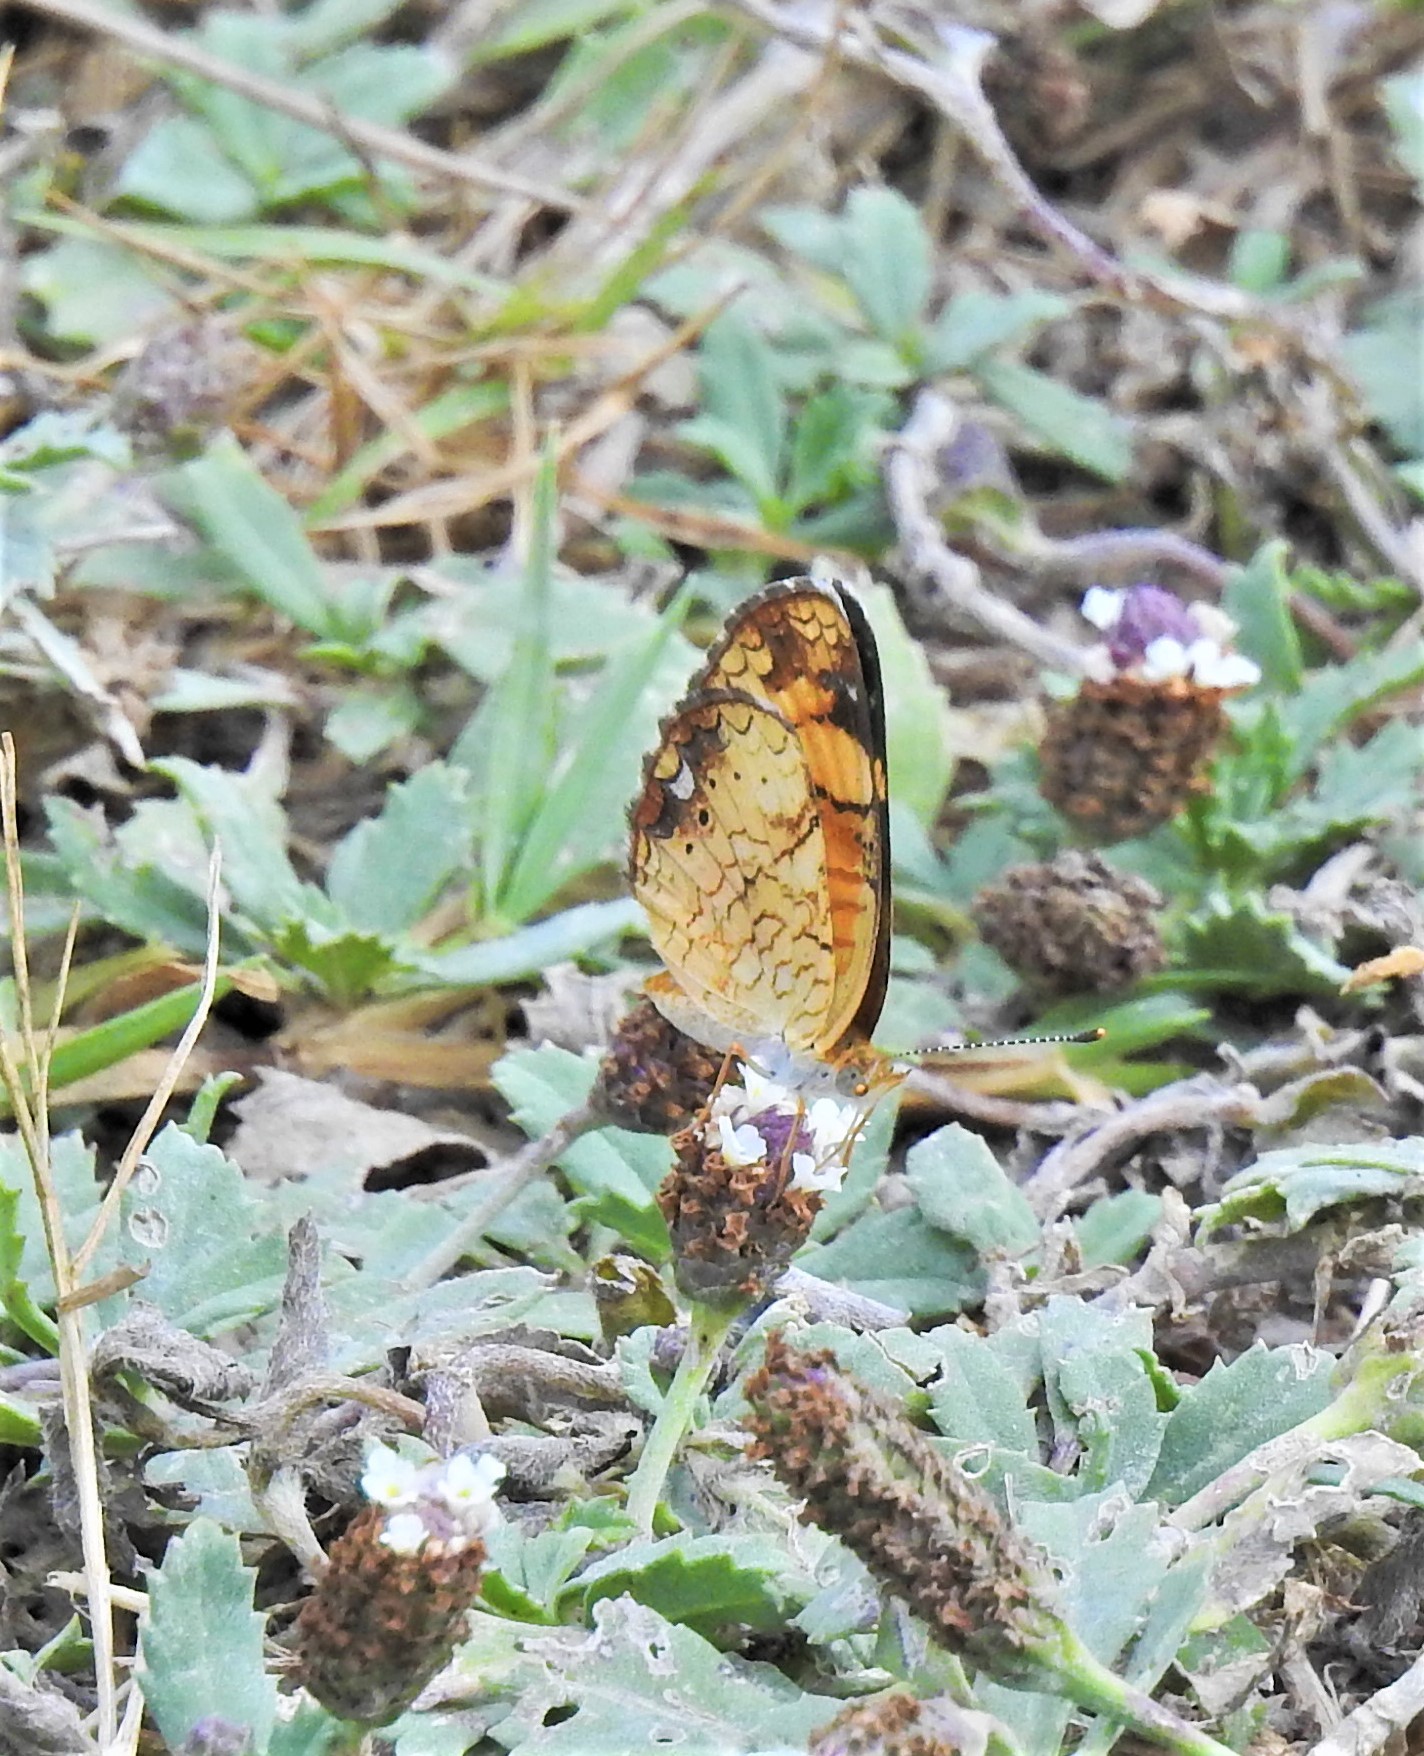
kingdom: Animalia
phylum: Arthropoda
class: Insecta
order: Lepidoptera
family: Nymphalidae
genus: Phyciodes
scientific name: Phyciodes tharos
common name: Pearl crescent
